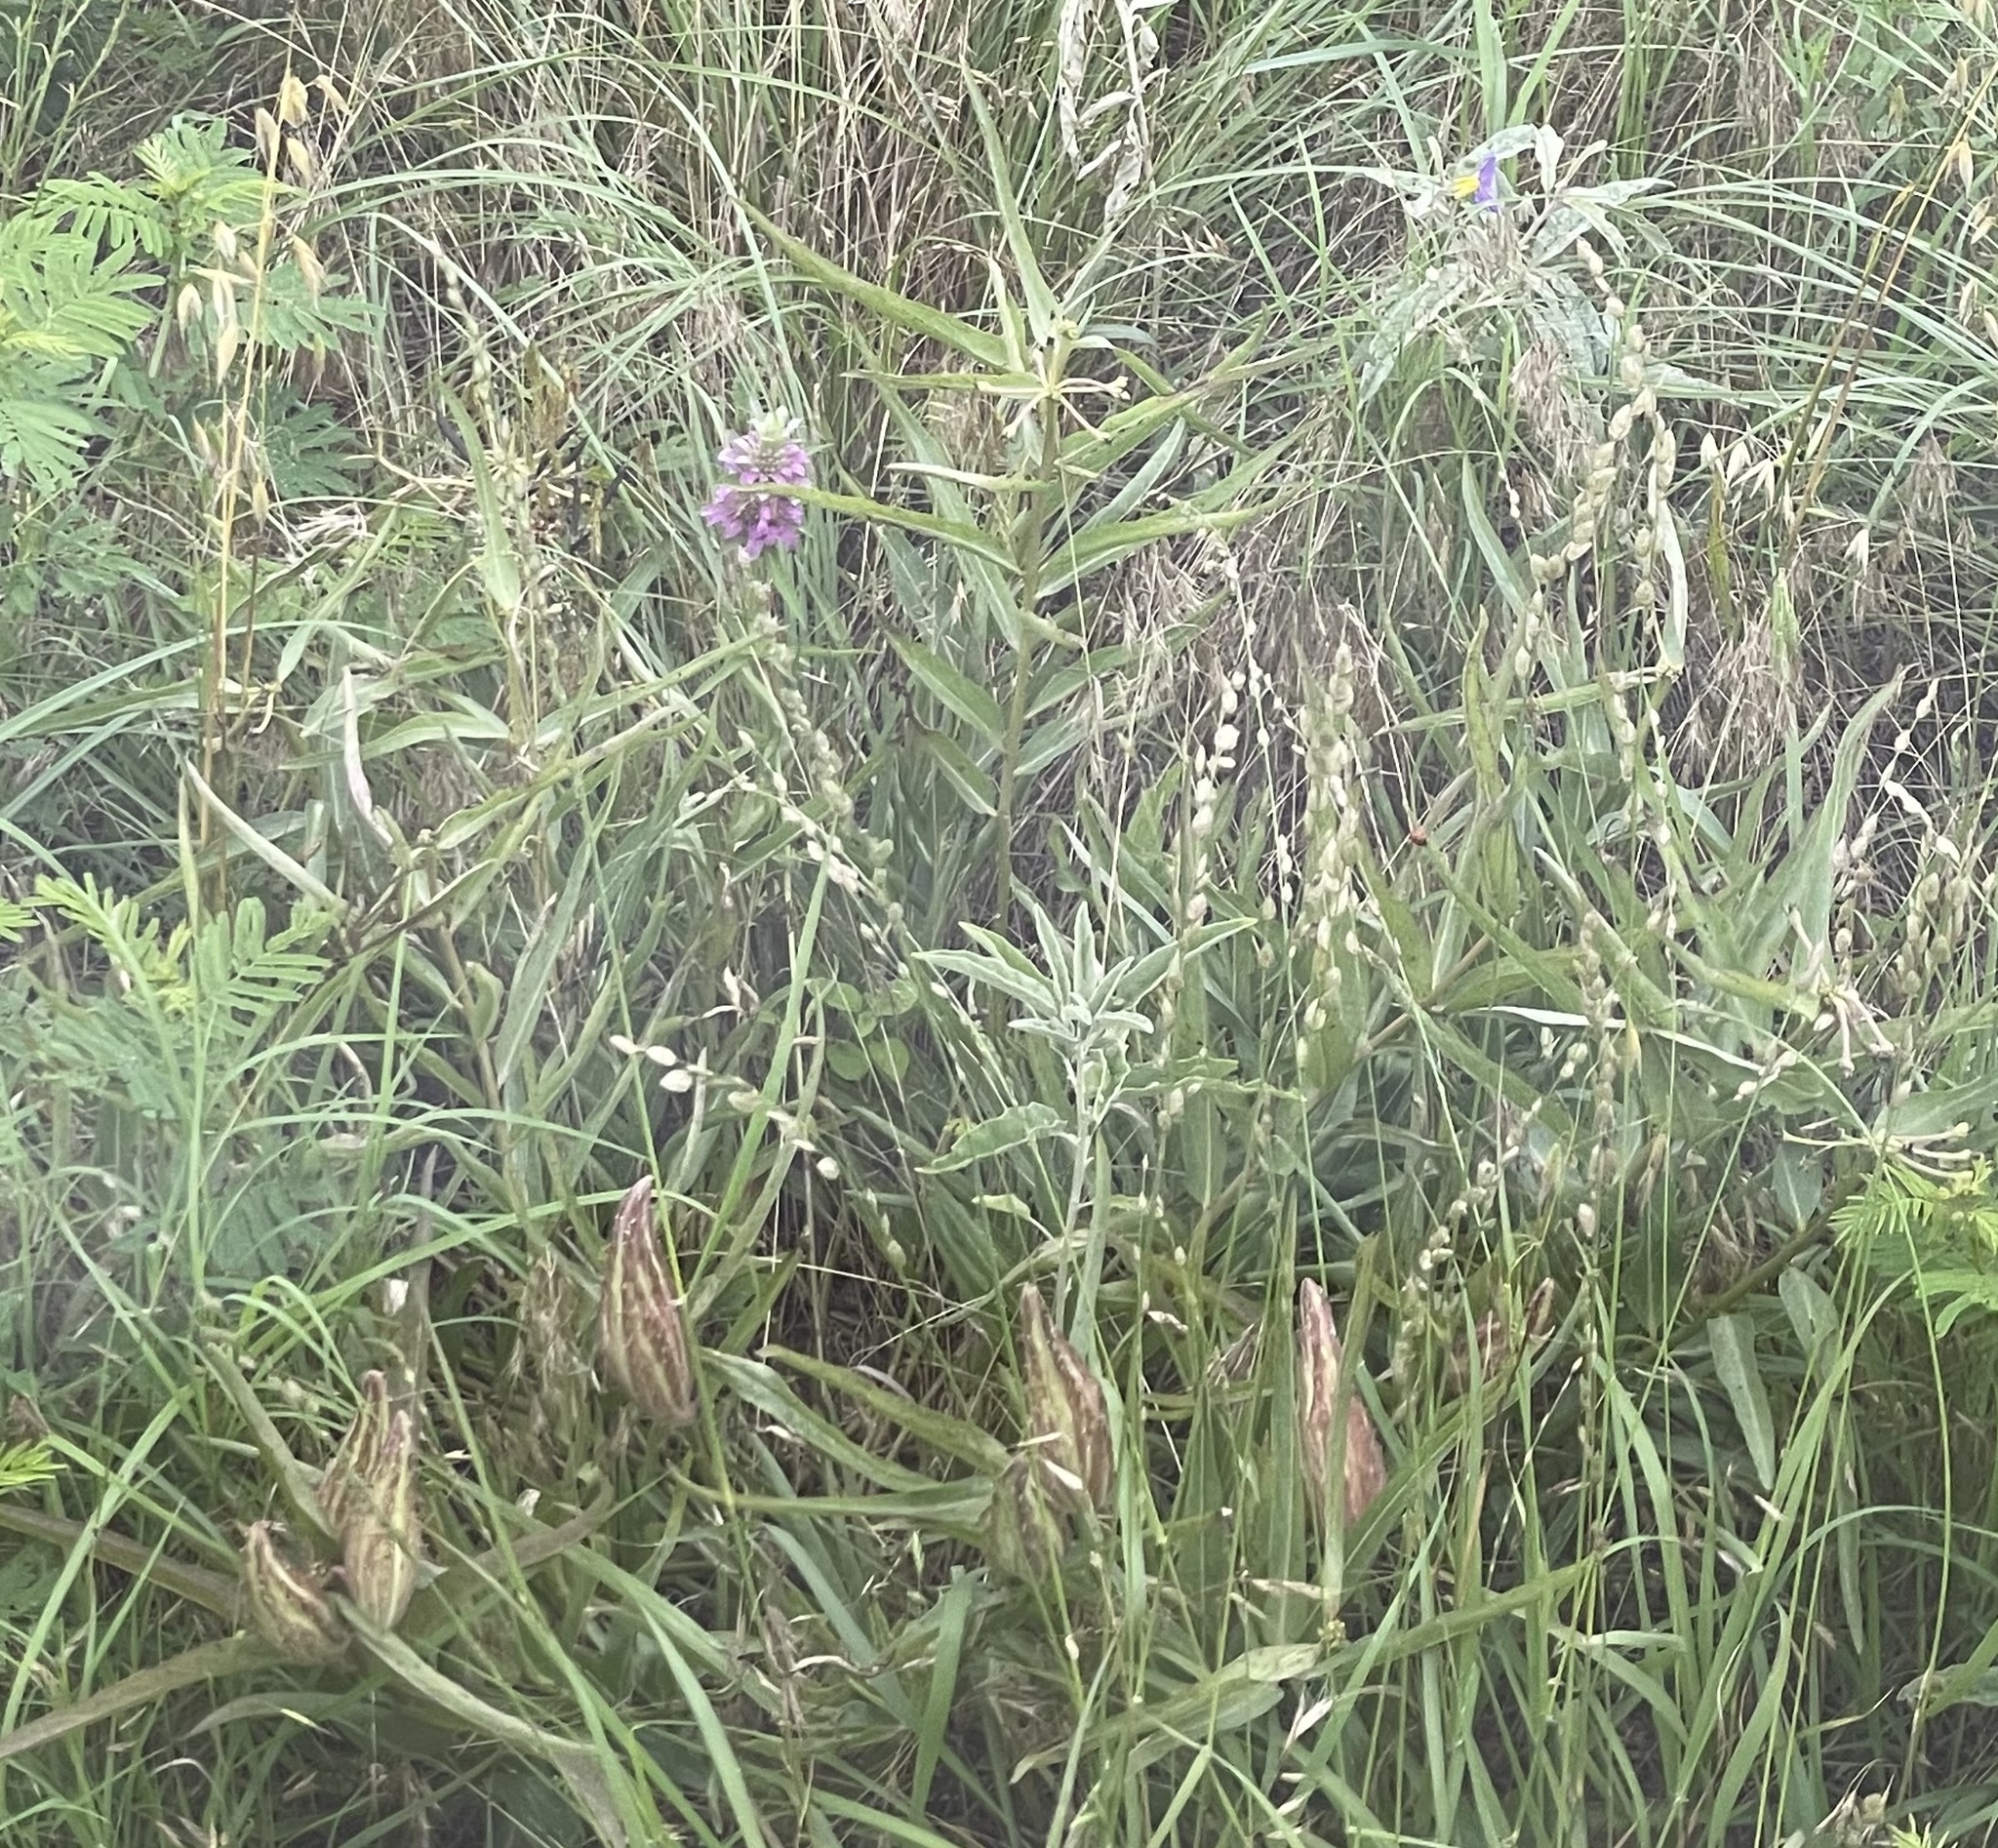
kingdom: Plantae
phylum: Tracheophyta
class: Magnoliopsida
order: Gentianales
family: Apocynaceae
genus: Asclepias
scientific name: Asclepias asperula
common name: Antelope horns
